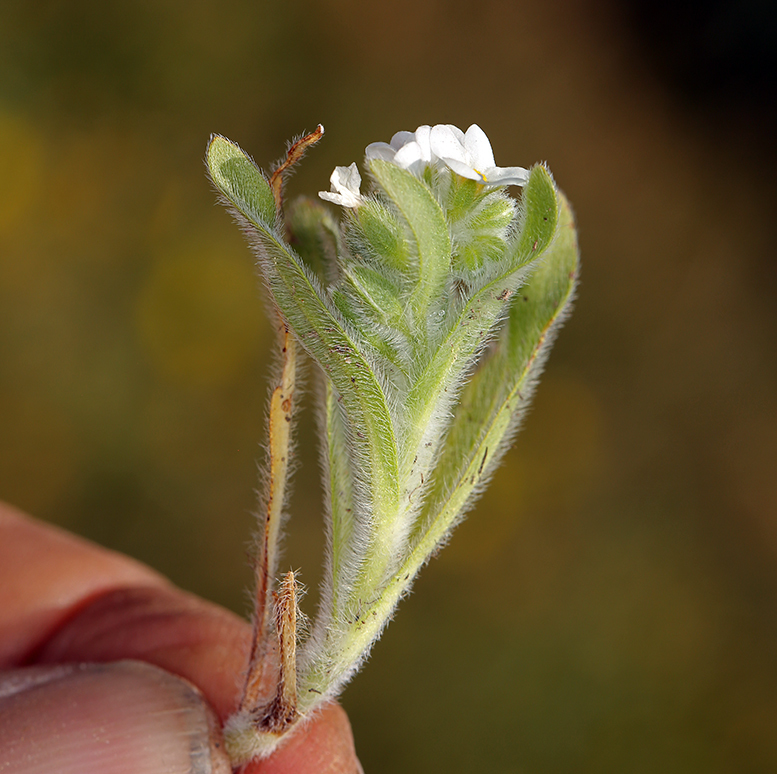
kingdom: Plantae
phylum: Tracheophyta
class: Magnoliopsida
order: Boraginales
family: Boraginaceae
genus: Plagiobothrys
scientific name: Plagiobothrys mollis
